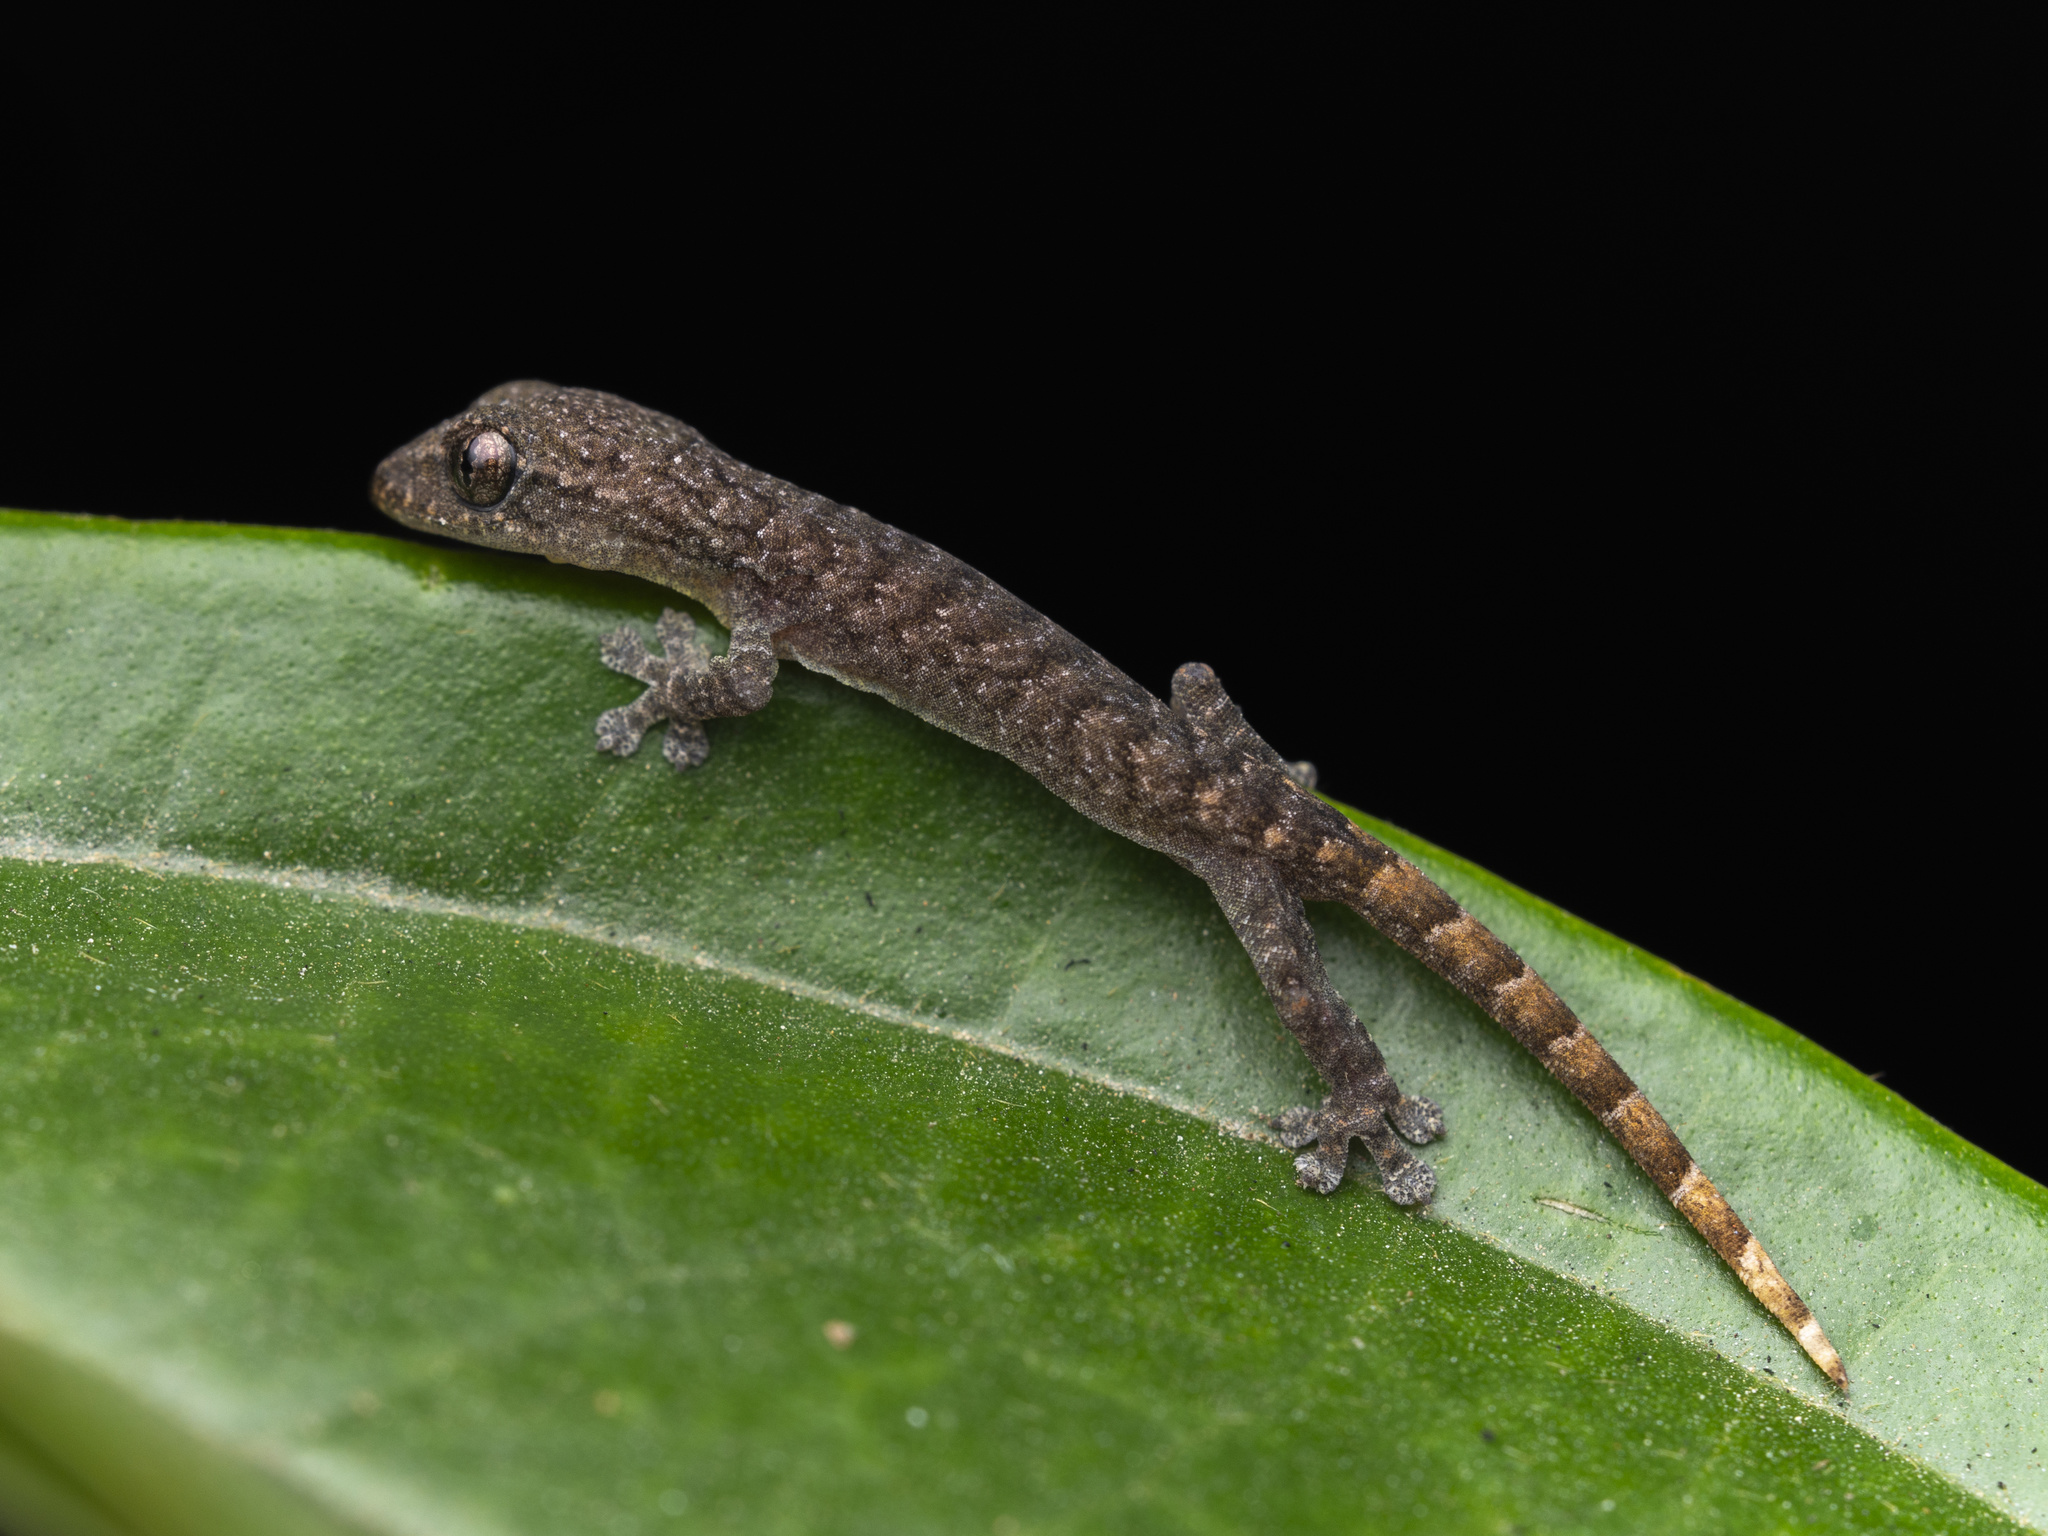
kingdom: Animalia
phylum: Chordata
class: Squamata
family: Gekkonidae
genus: Hemiphyllodactylus
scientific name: Hemiphyllodactylus hongkongensis
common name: Hong kong slender gecko
